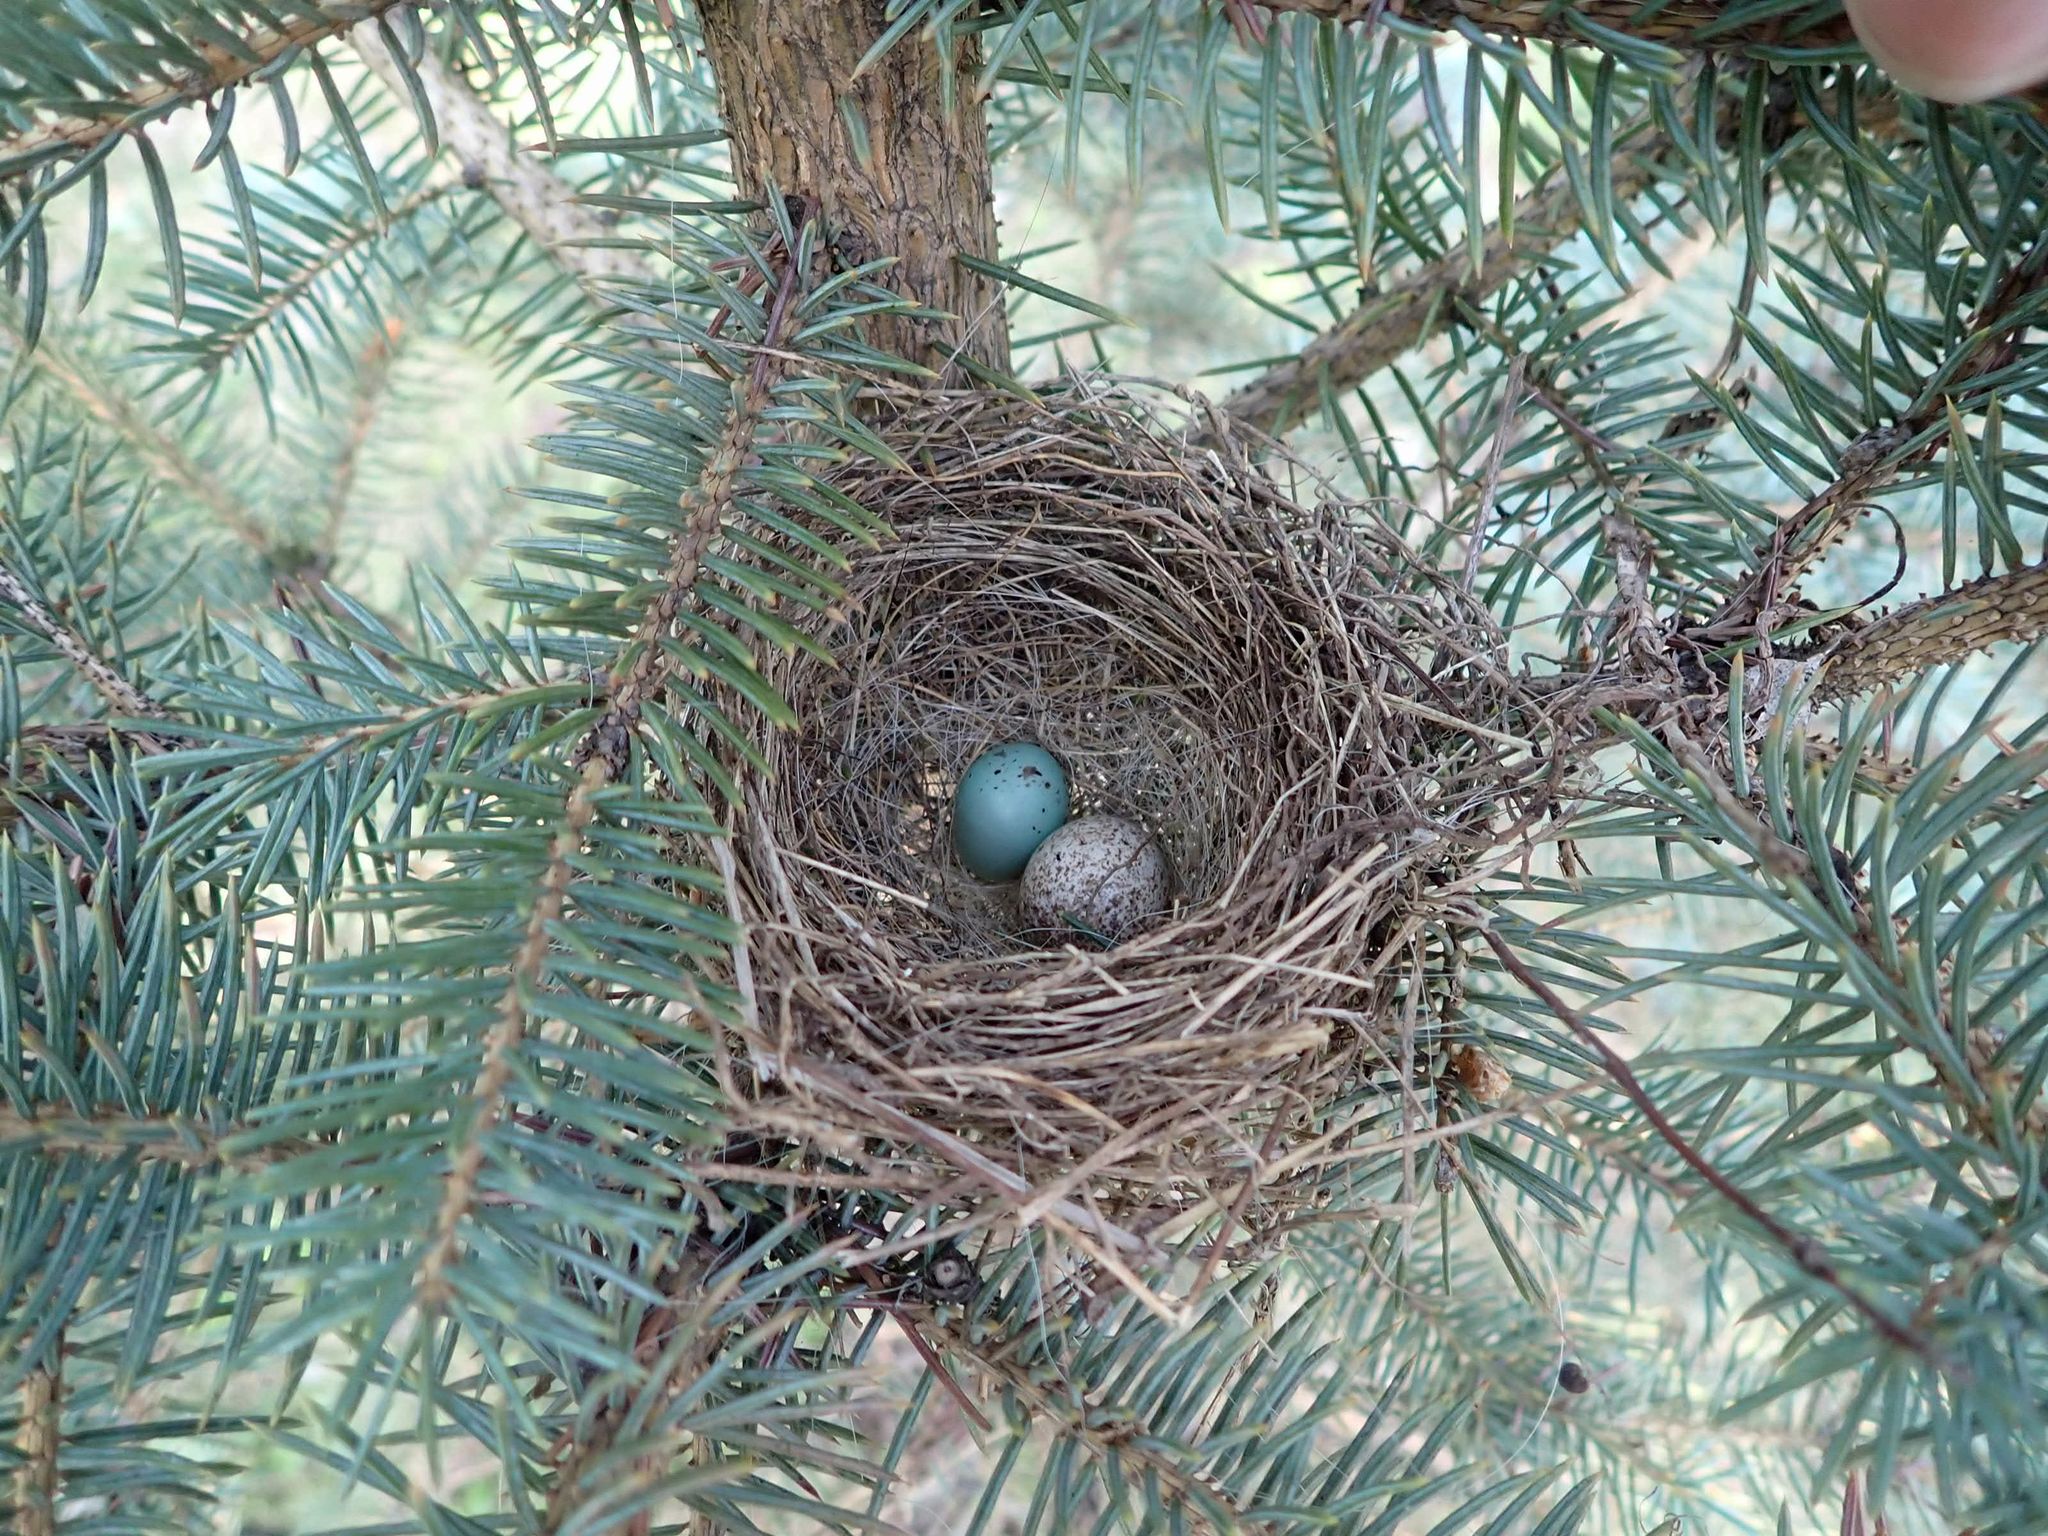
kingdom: Animalia
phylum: Chordata
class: Aves
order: Passeriformes
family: Passerellidae
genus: Spizella
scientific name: Spizella passerina
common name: Chipping sparrow
